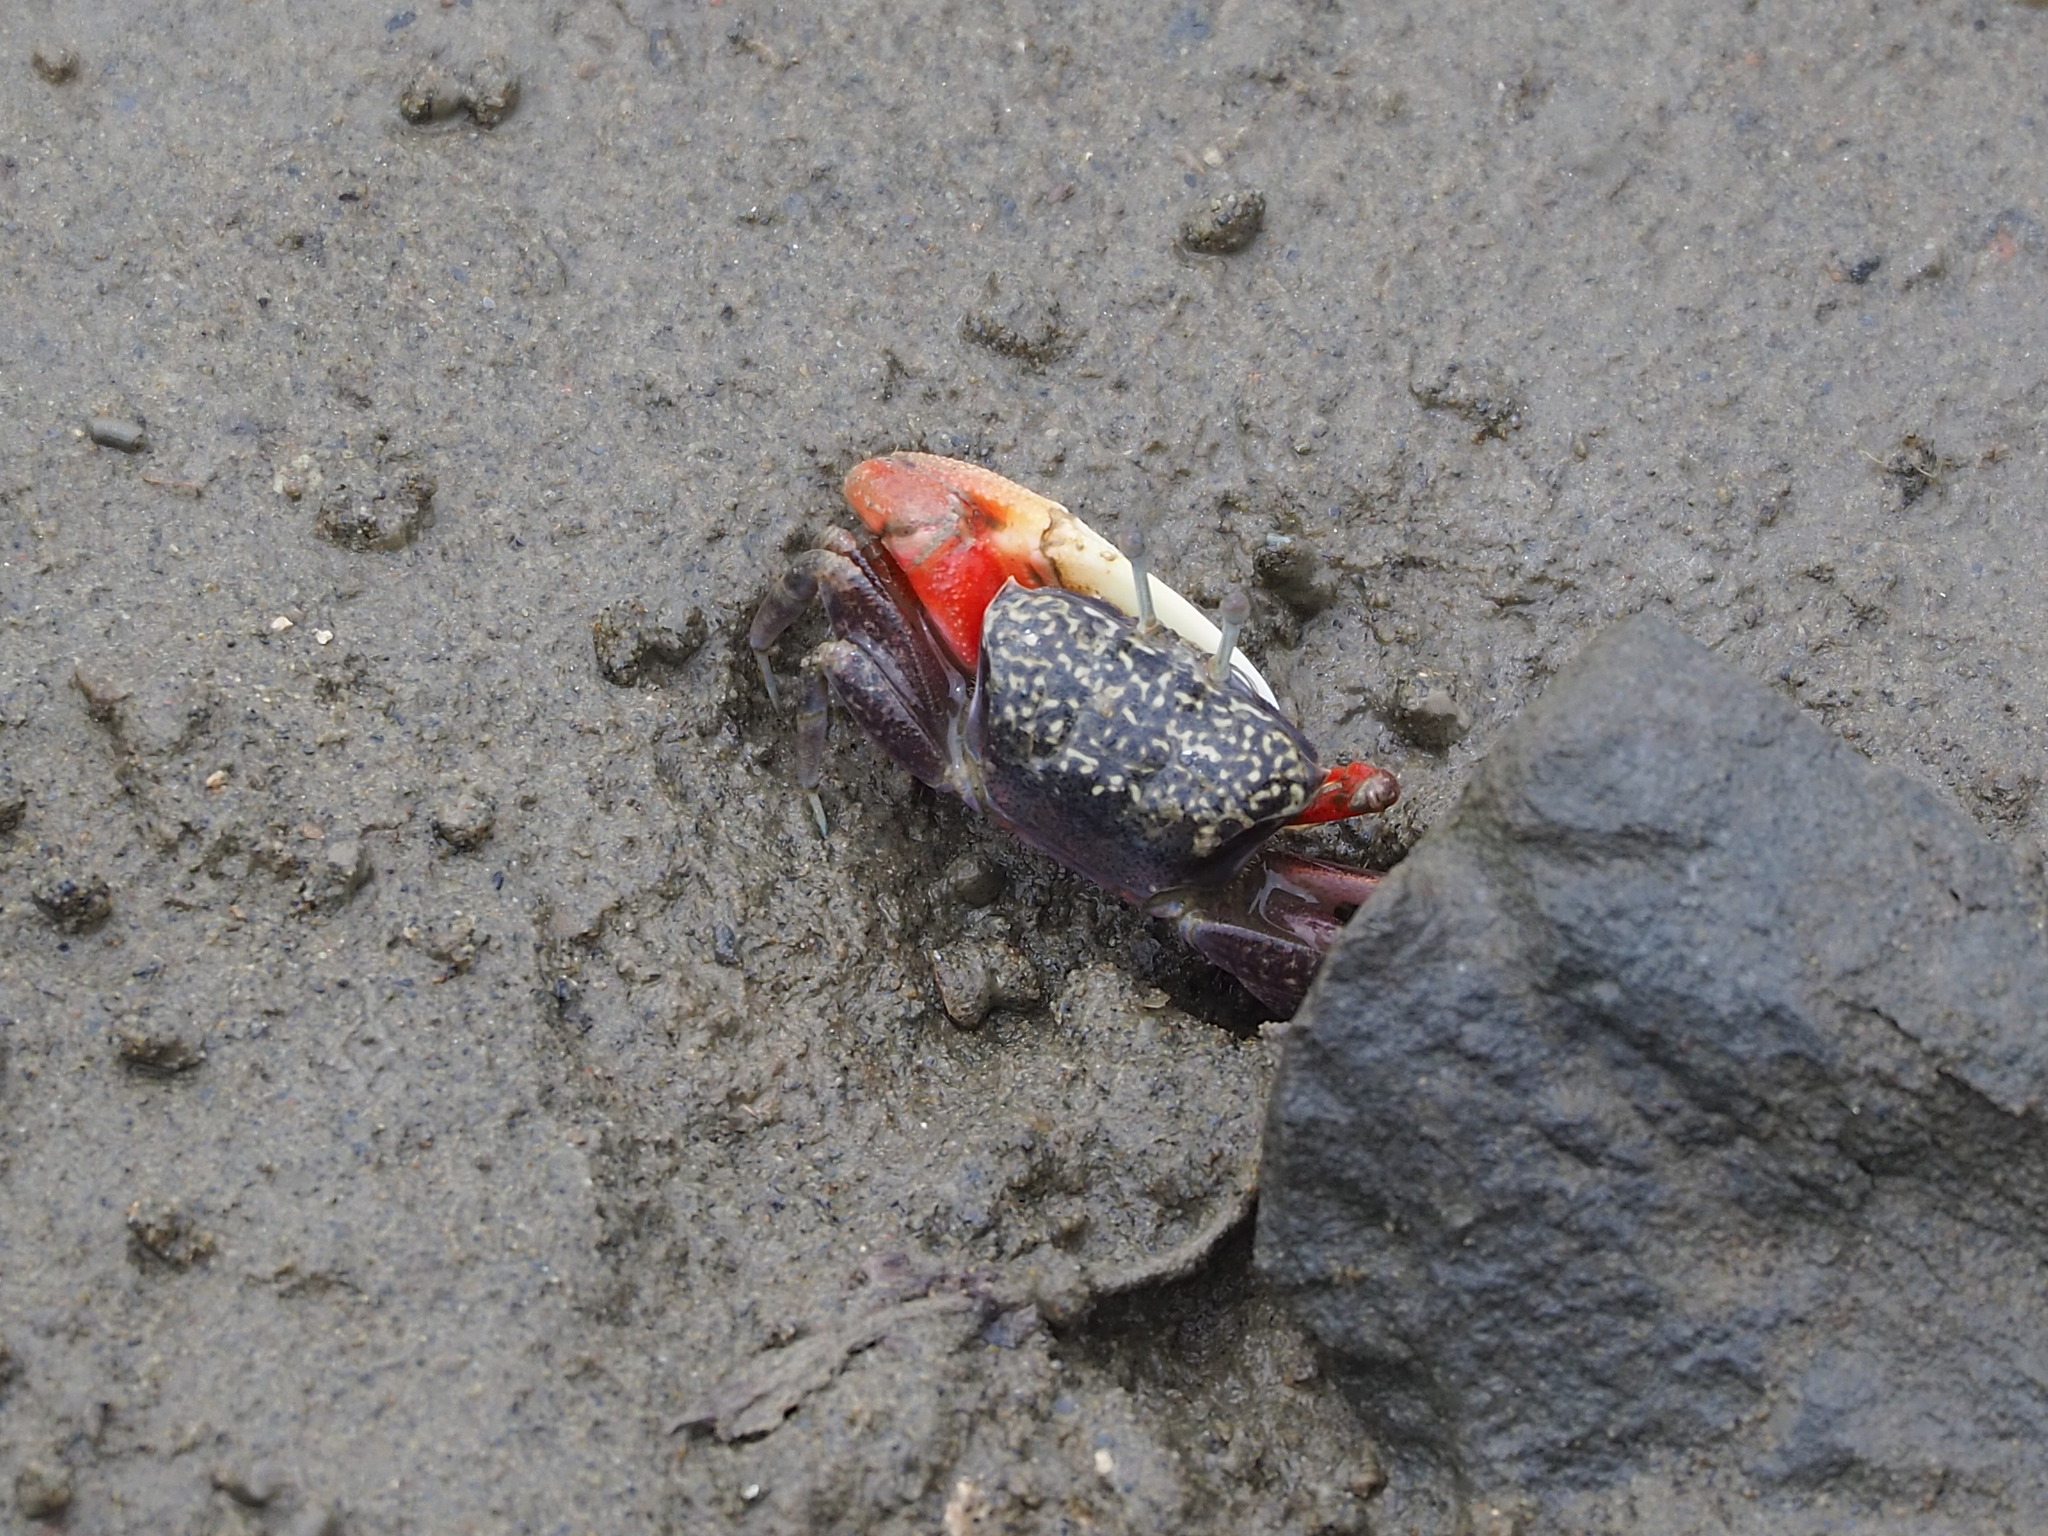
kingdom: Animalia
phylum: Arthropoda
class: Malacostraca
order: Decapoda
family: Ocypodidae
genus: Tubuca
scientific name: Tubuca arcuata
